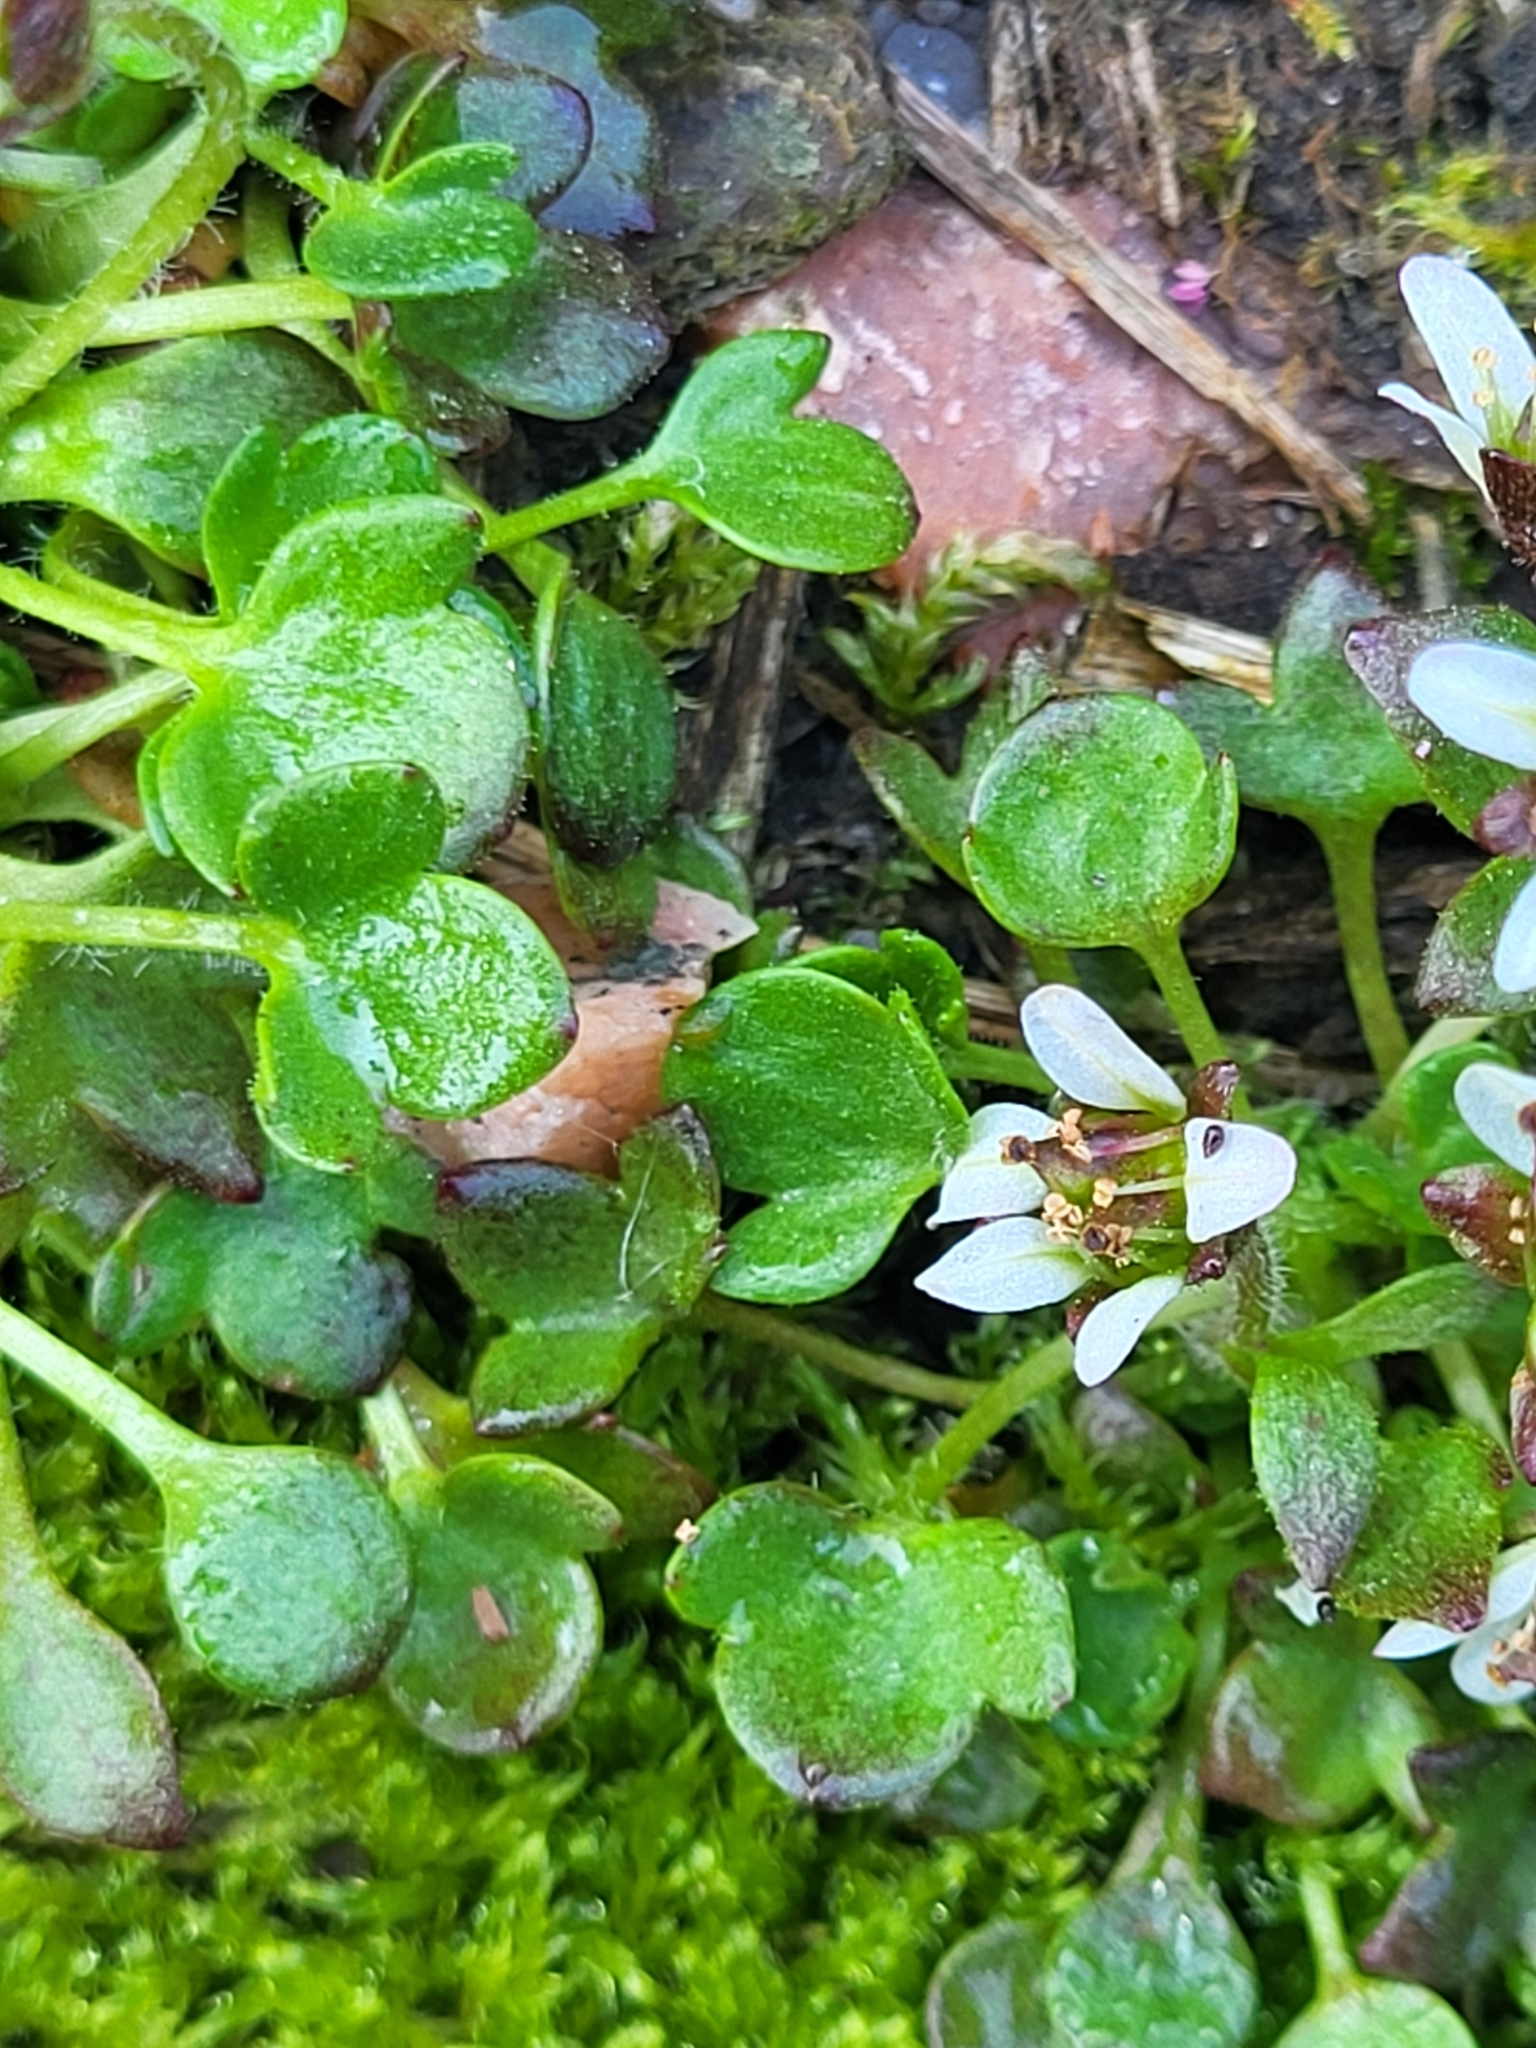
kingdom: Plantae
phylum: Tracheophyta
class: Magnoliopsida
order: Saxifragales
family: Saxifragaceae
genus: Saxifraga
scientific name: Saxifraga hyperborea
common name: Arctic saxifrage
